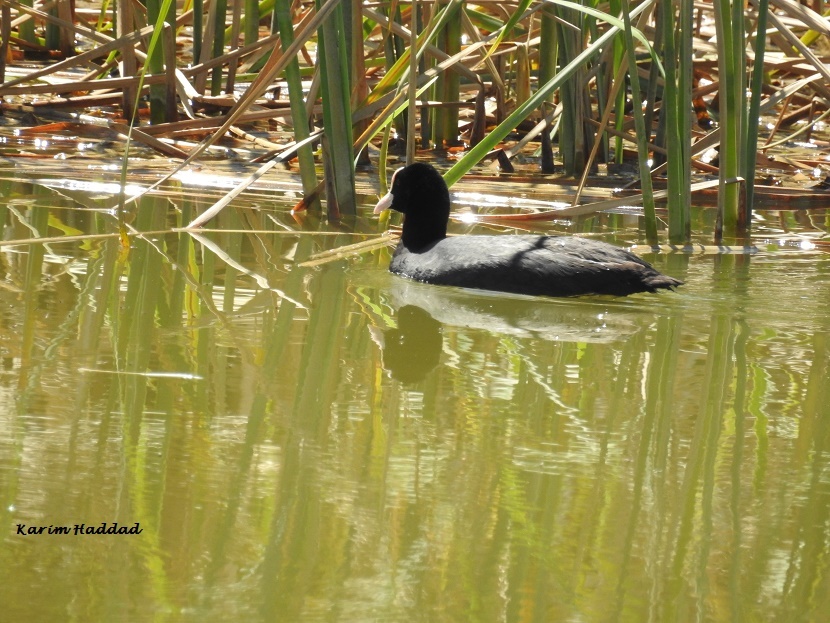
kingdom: Animalia
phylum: Chordata
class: Aves
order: Gruiformes
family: Rallidae
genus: Fulica
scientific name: Fulica atra
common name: Eurasian coot
